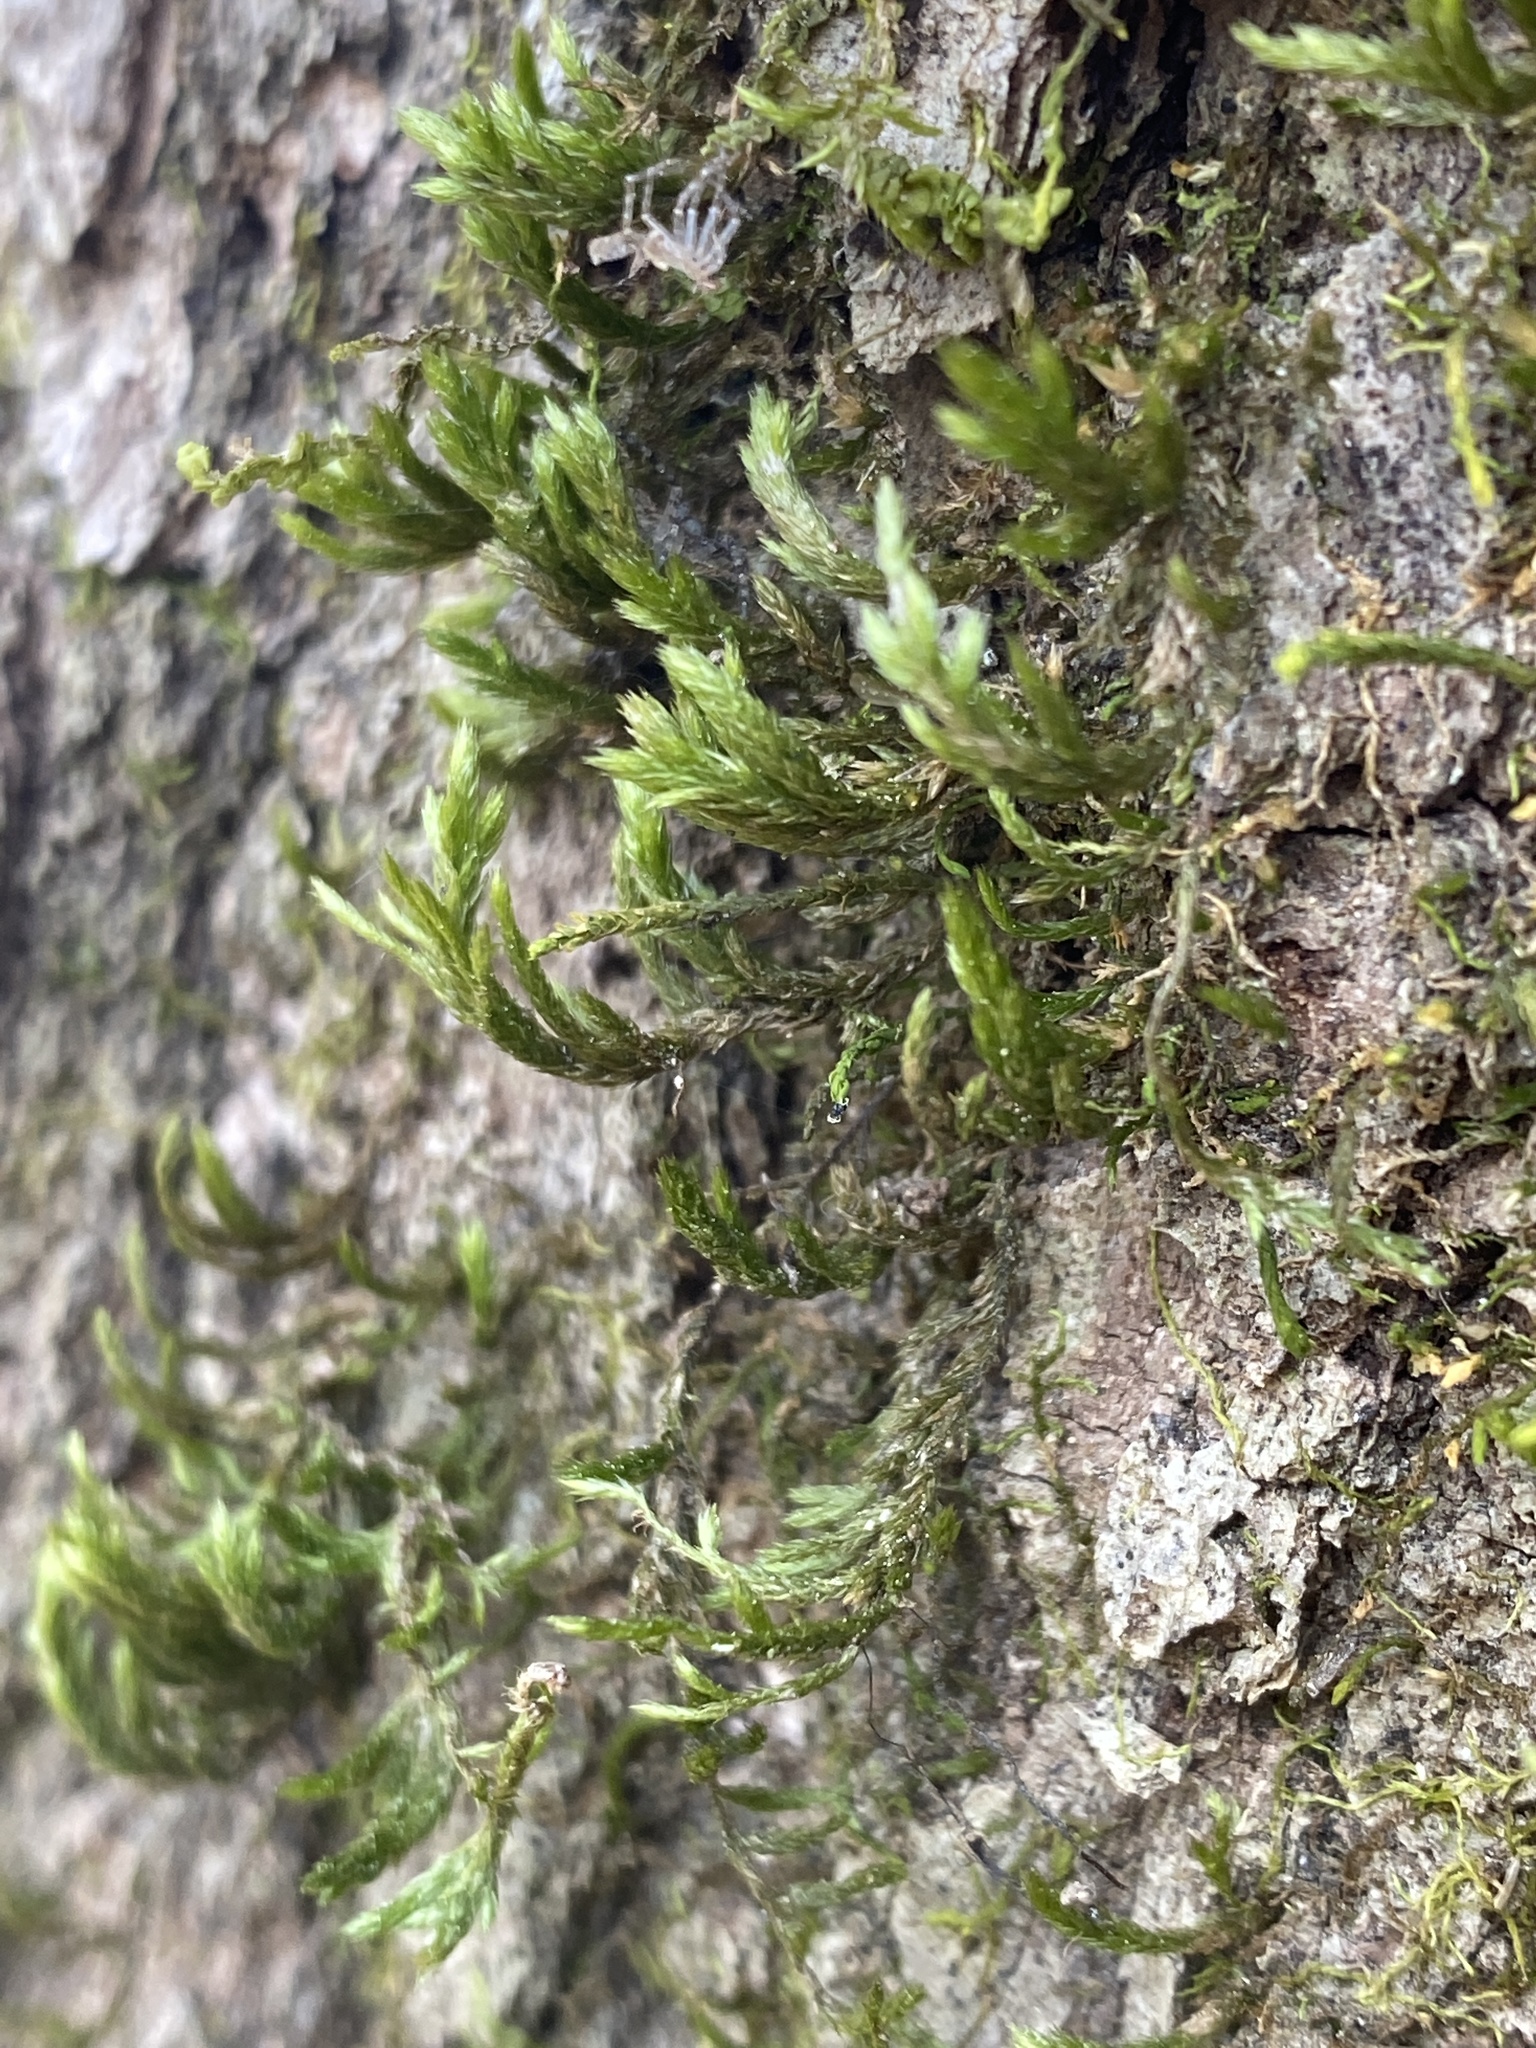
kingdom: Plantae
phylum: Bryophyta
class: Bryopsida
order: Hypnales
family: Neckeraceae
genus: Forsstroemia
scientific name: Forsstroemia trichomitria
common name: Fan moss
